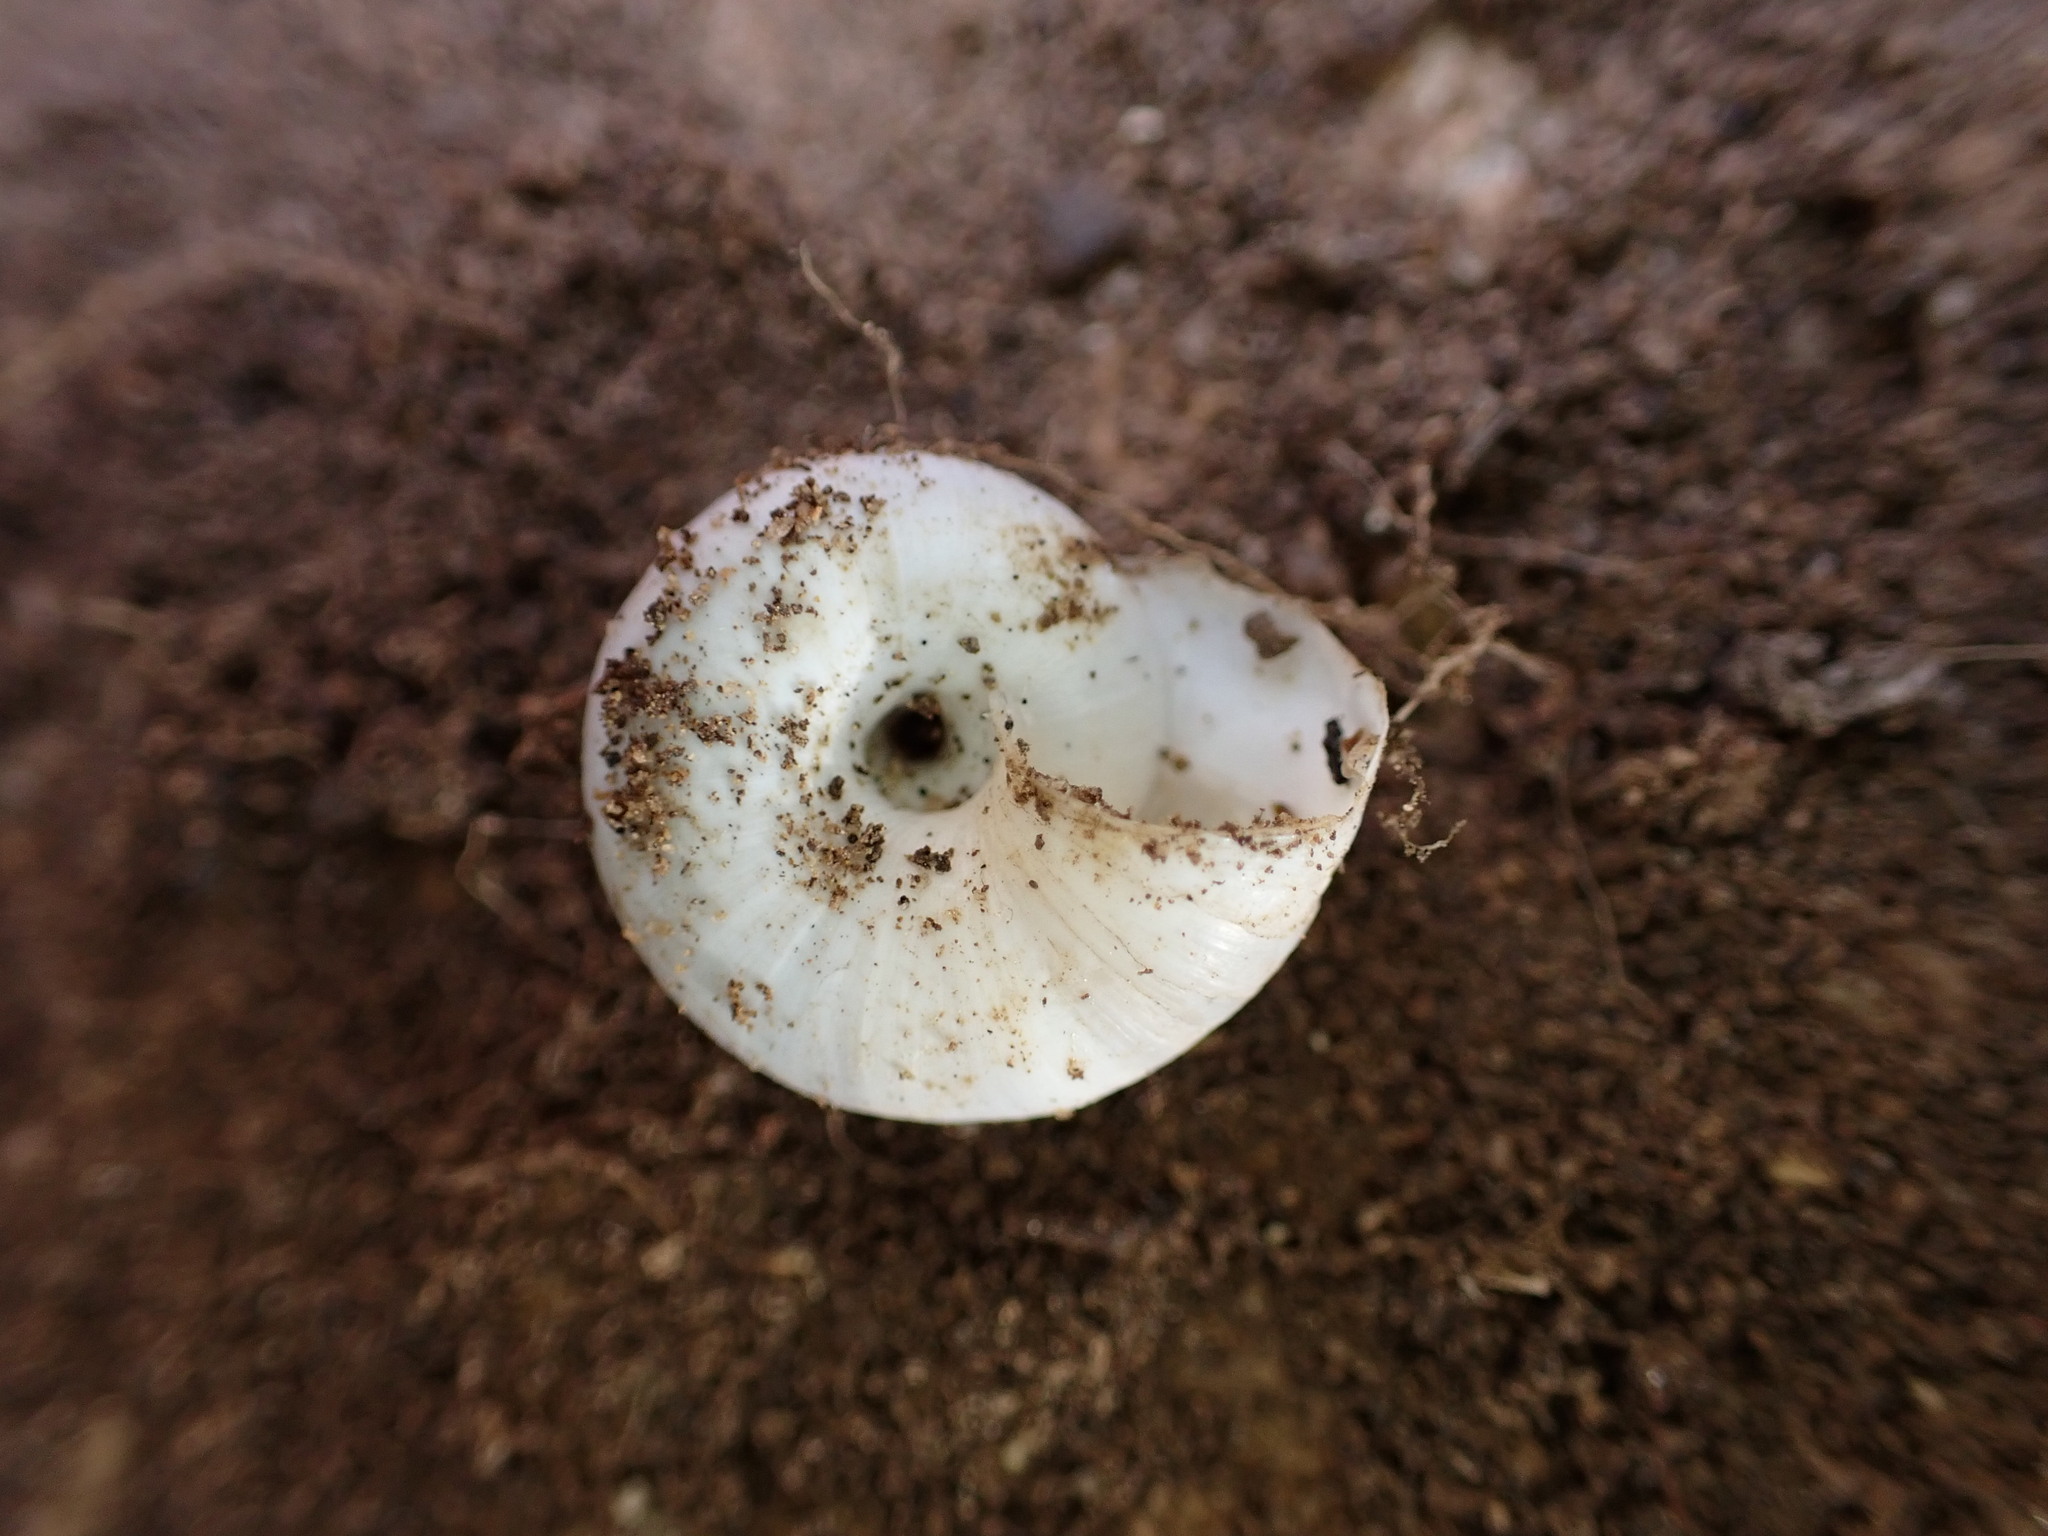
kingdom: Animalia
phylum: Mollusca
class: Gastropoda
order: Stylommatophora
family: Geomitridae
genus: Xeropicta
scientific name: Xeropicta derbentina
